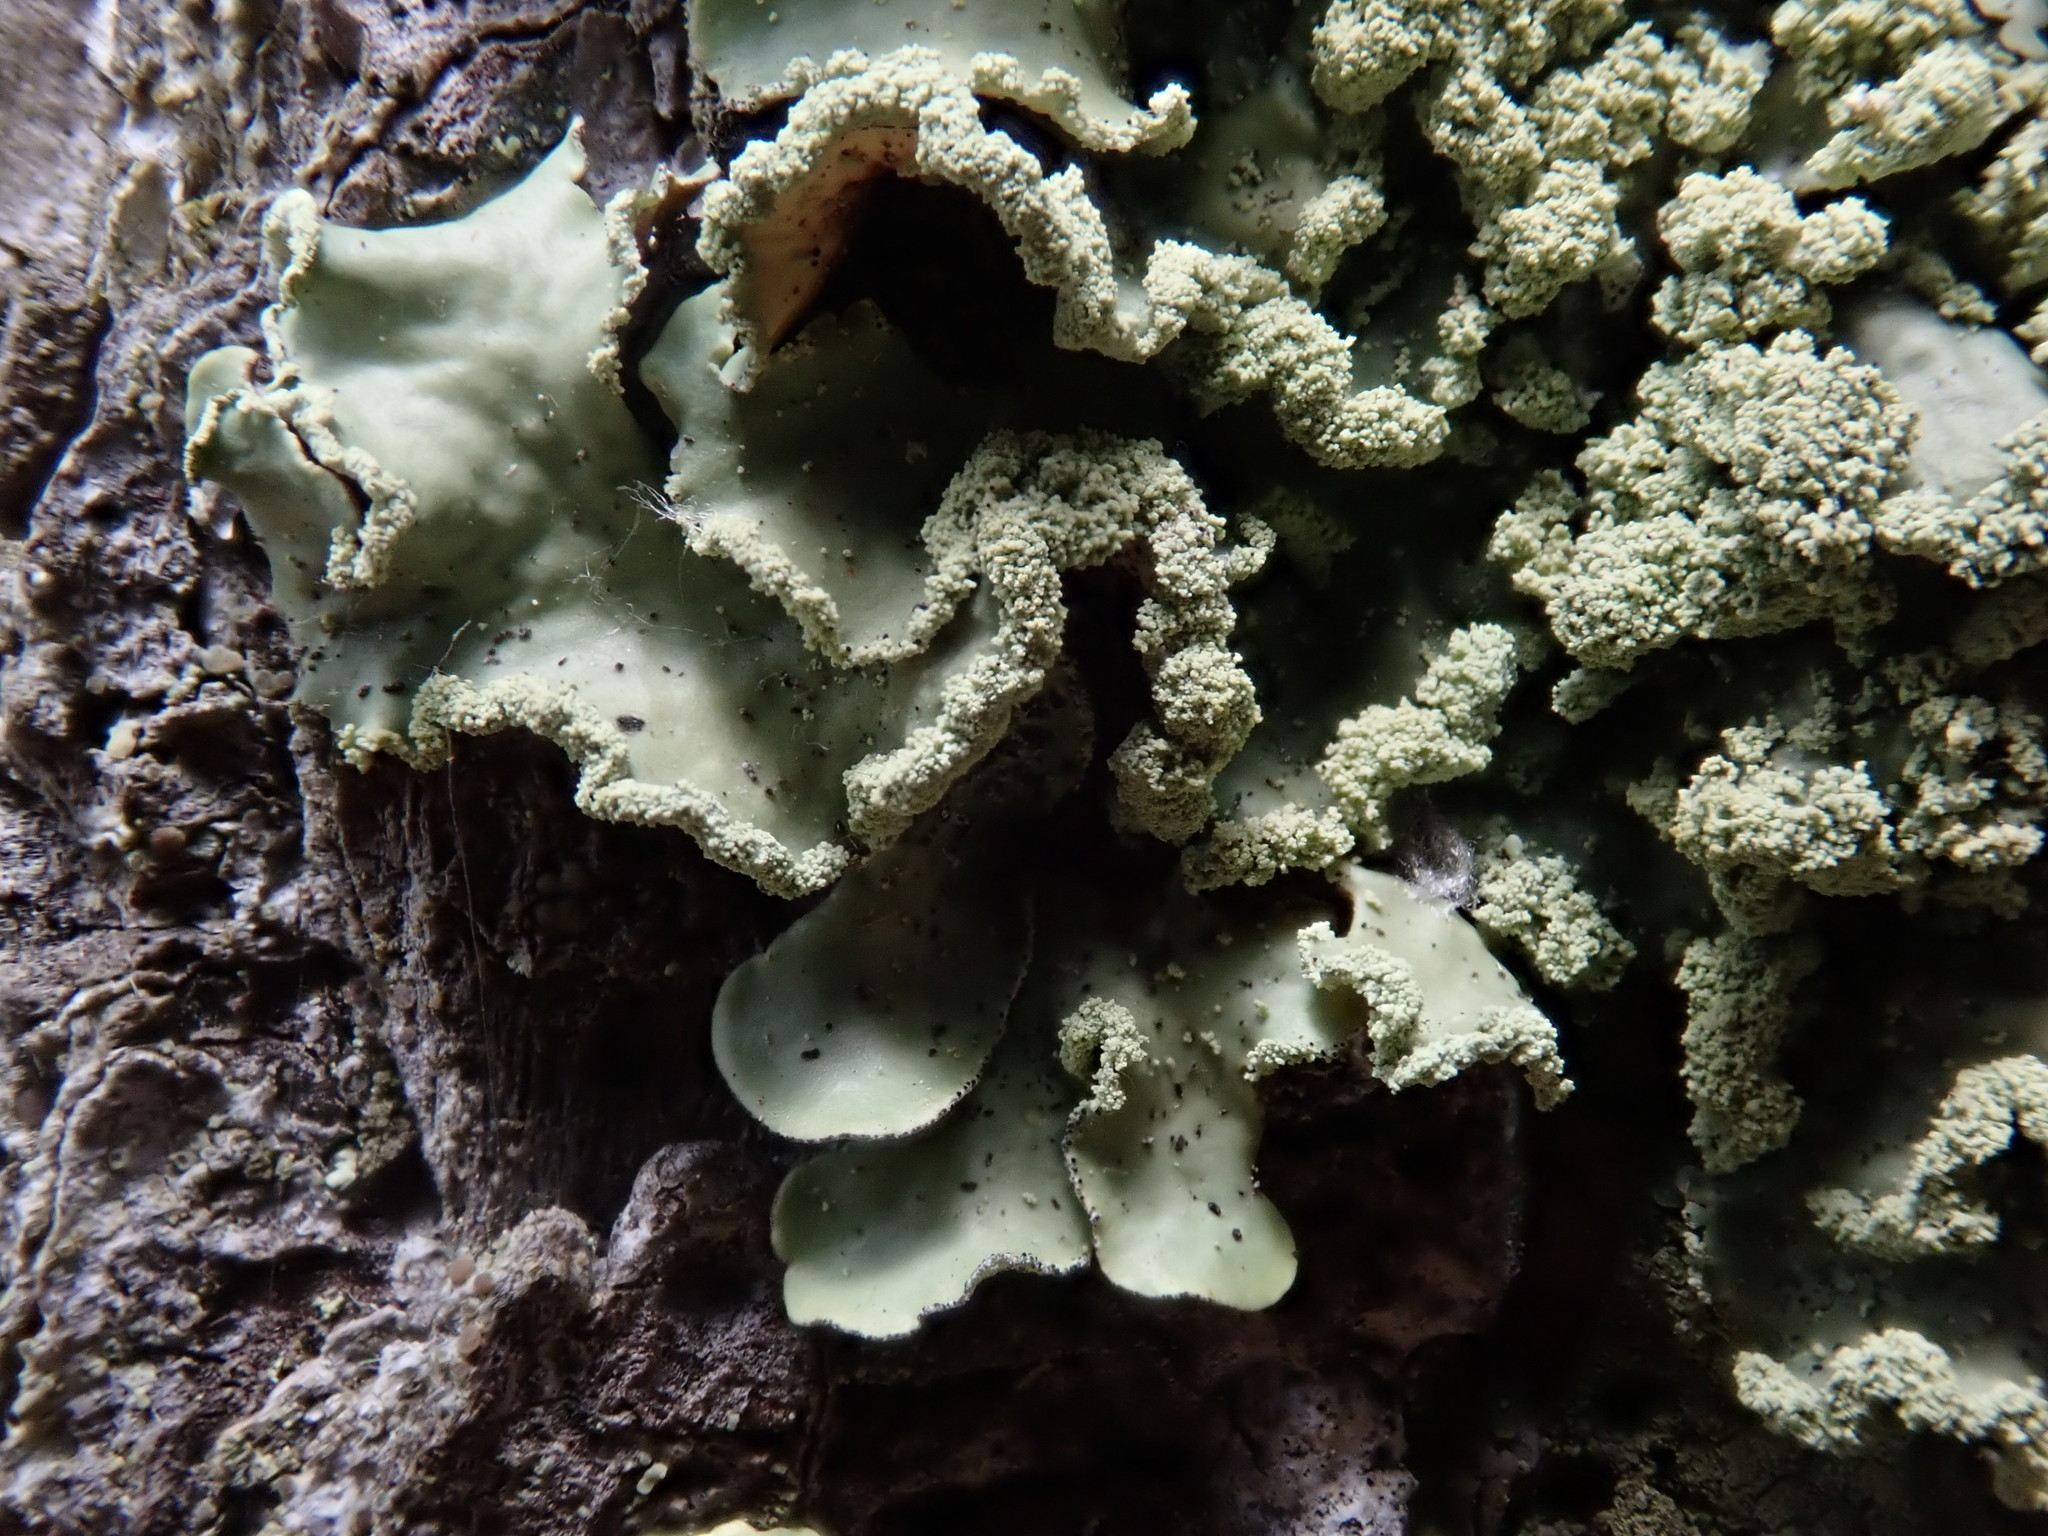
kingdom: Fungi
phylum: Ascomycota
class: Lecanoromycetes
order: Lecanorales
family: Parmeliaceae
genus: Usnocetraria
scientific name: Usnocetraria oakesiana
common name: Yellow ribbon lichen
